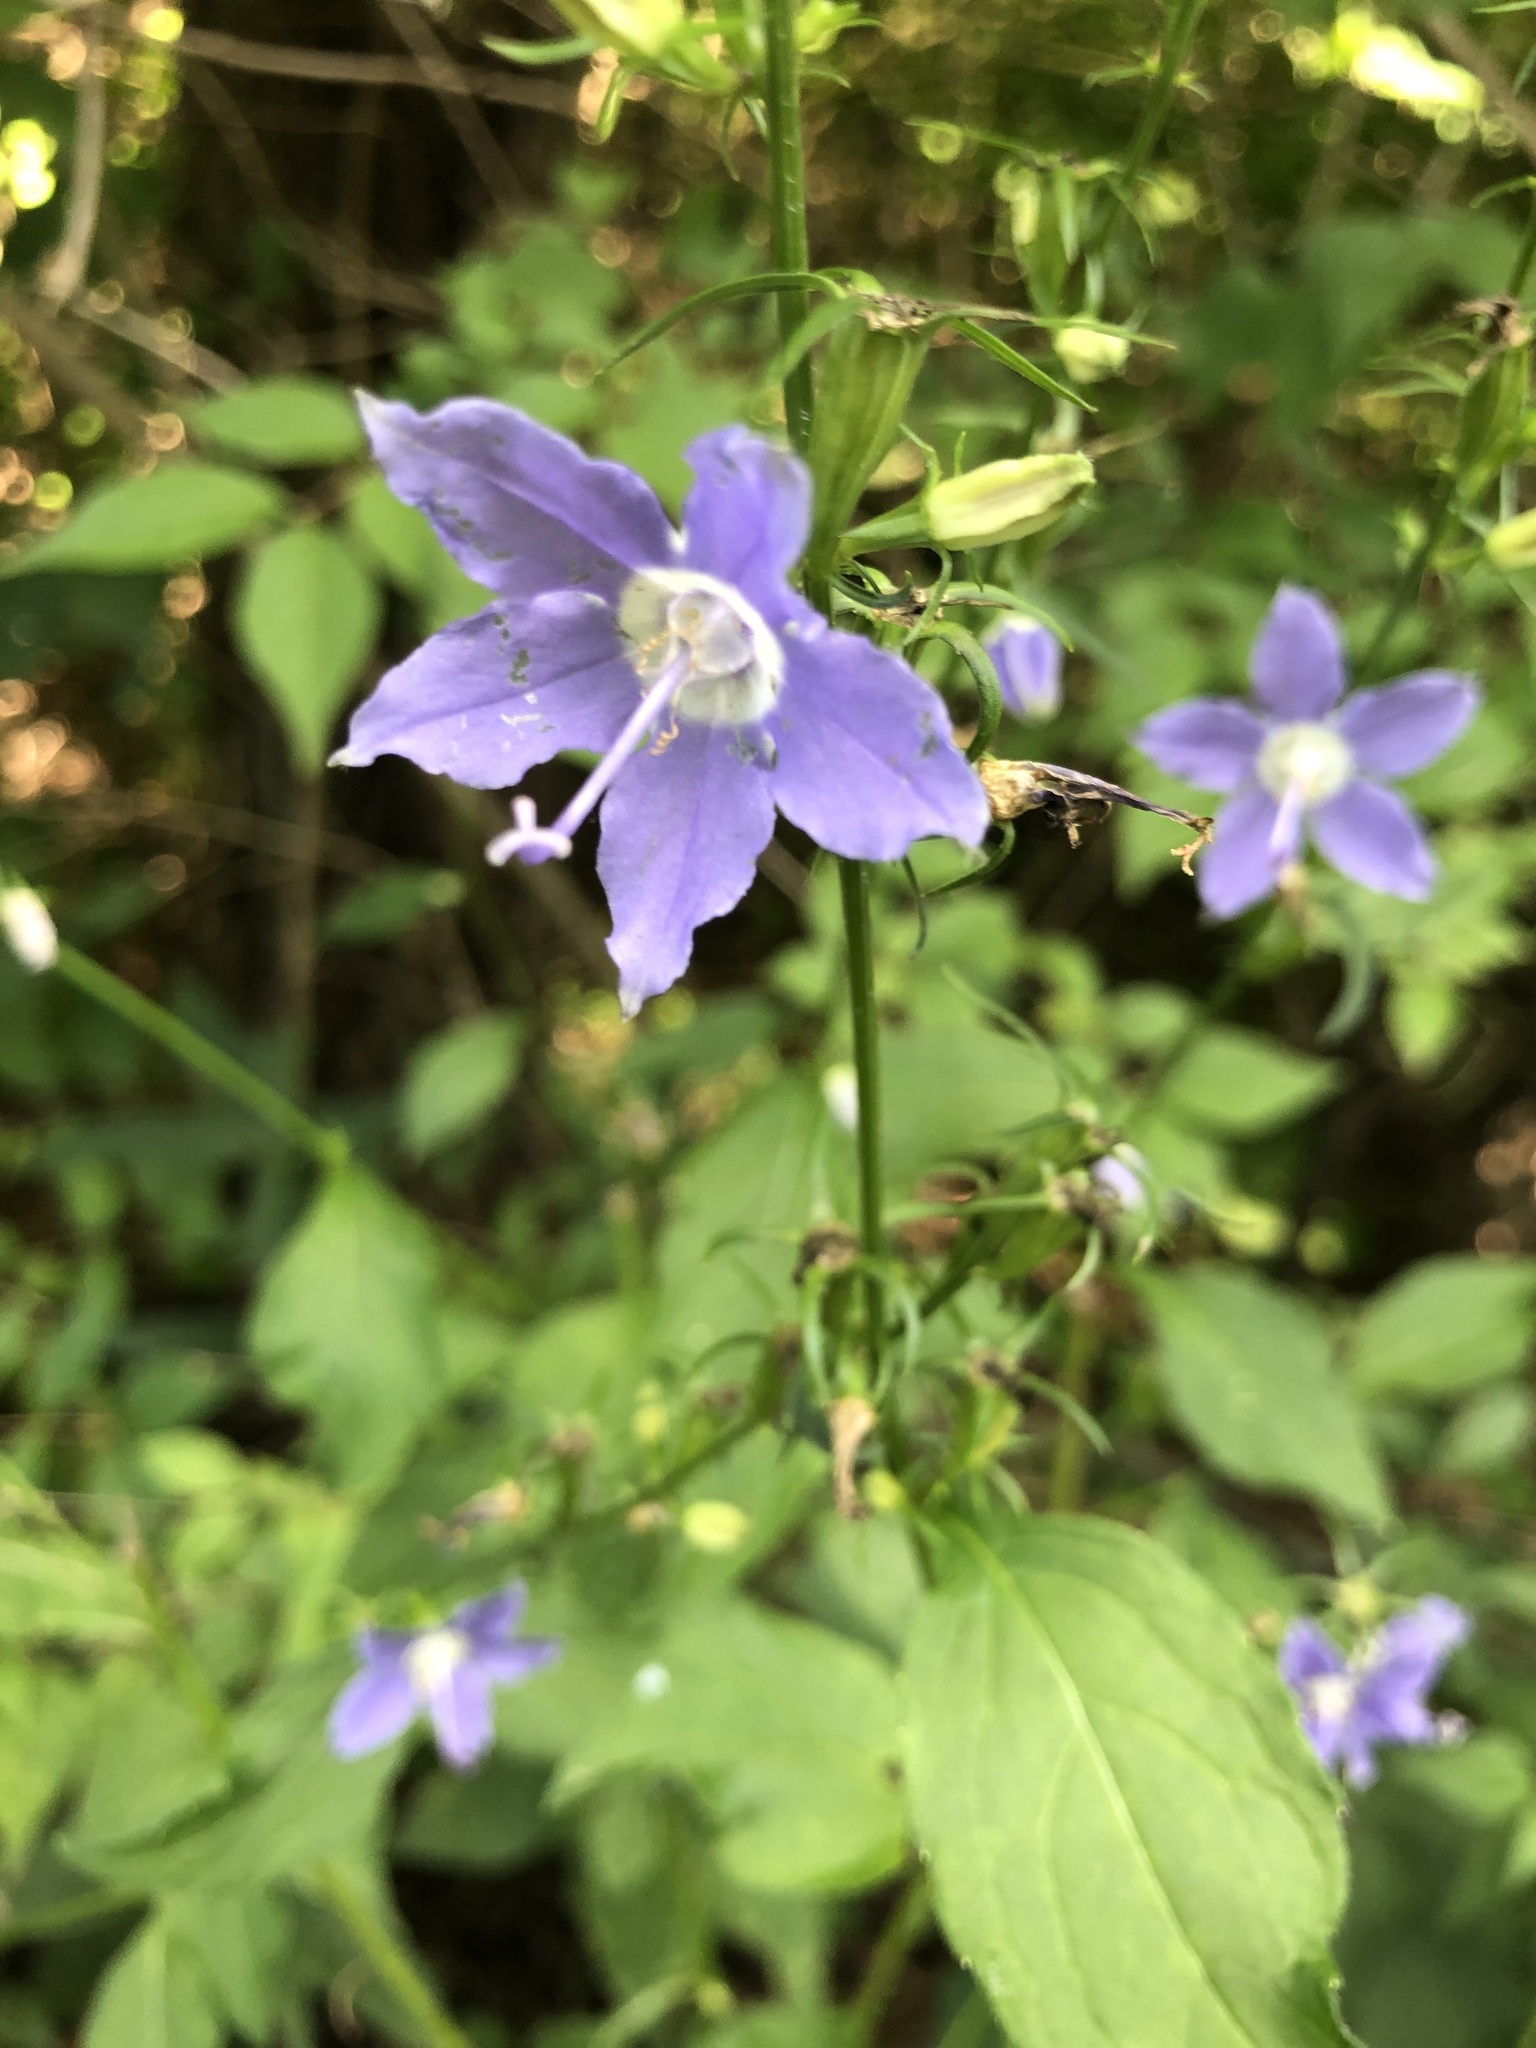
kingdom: Plantae
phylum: Tracheophyta
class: Magnoliopsida
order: Asterales
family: Campanulaceae
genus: Campanulastrum
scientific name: Campanulastrum americanum
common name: American bellflower
